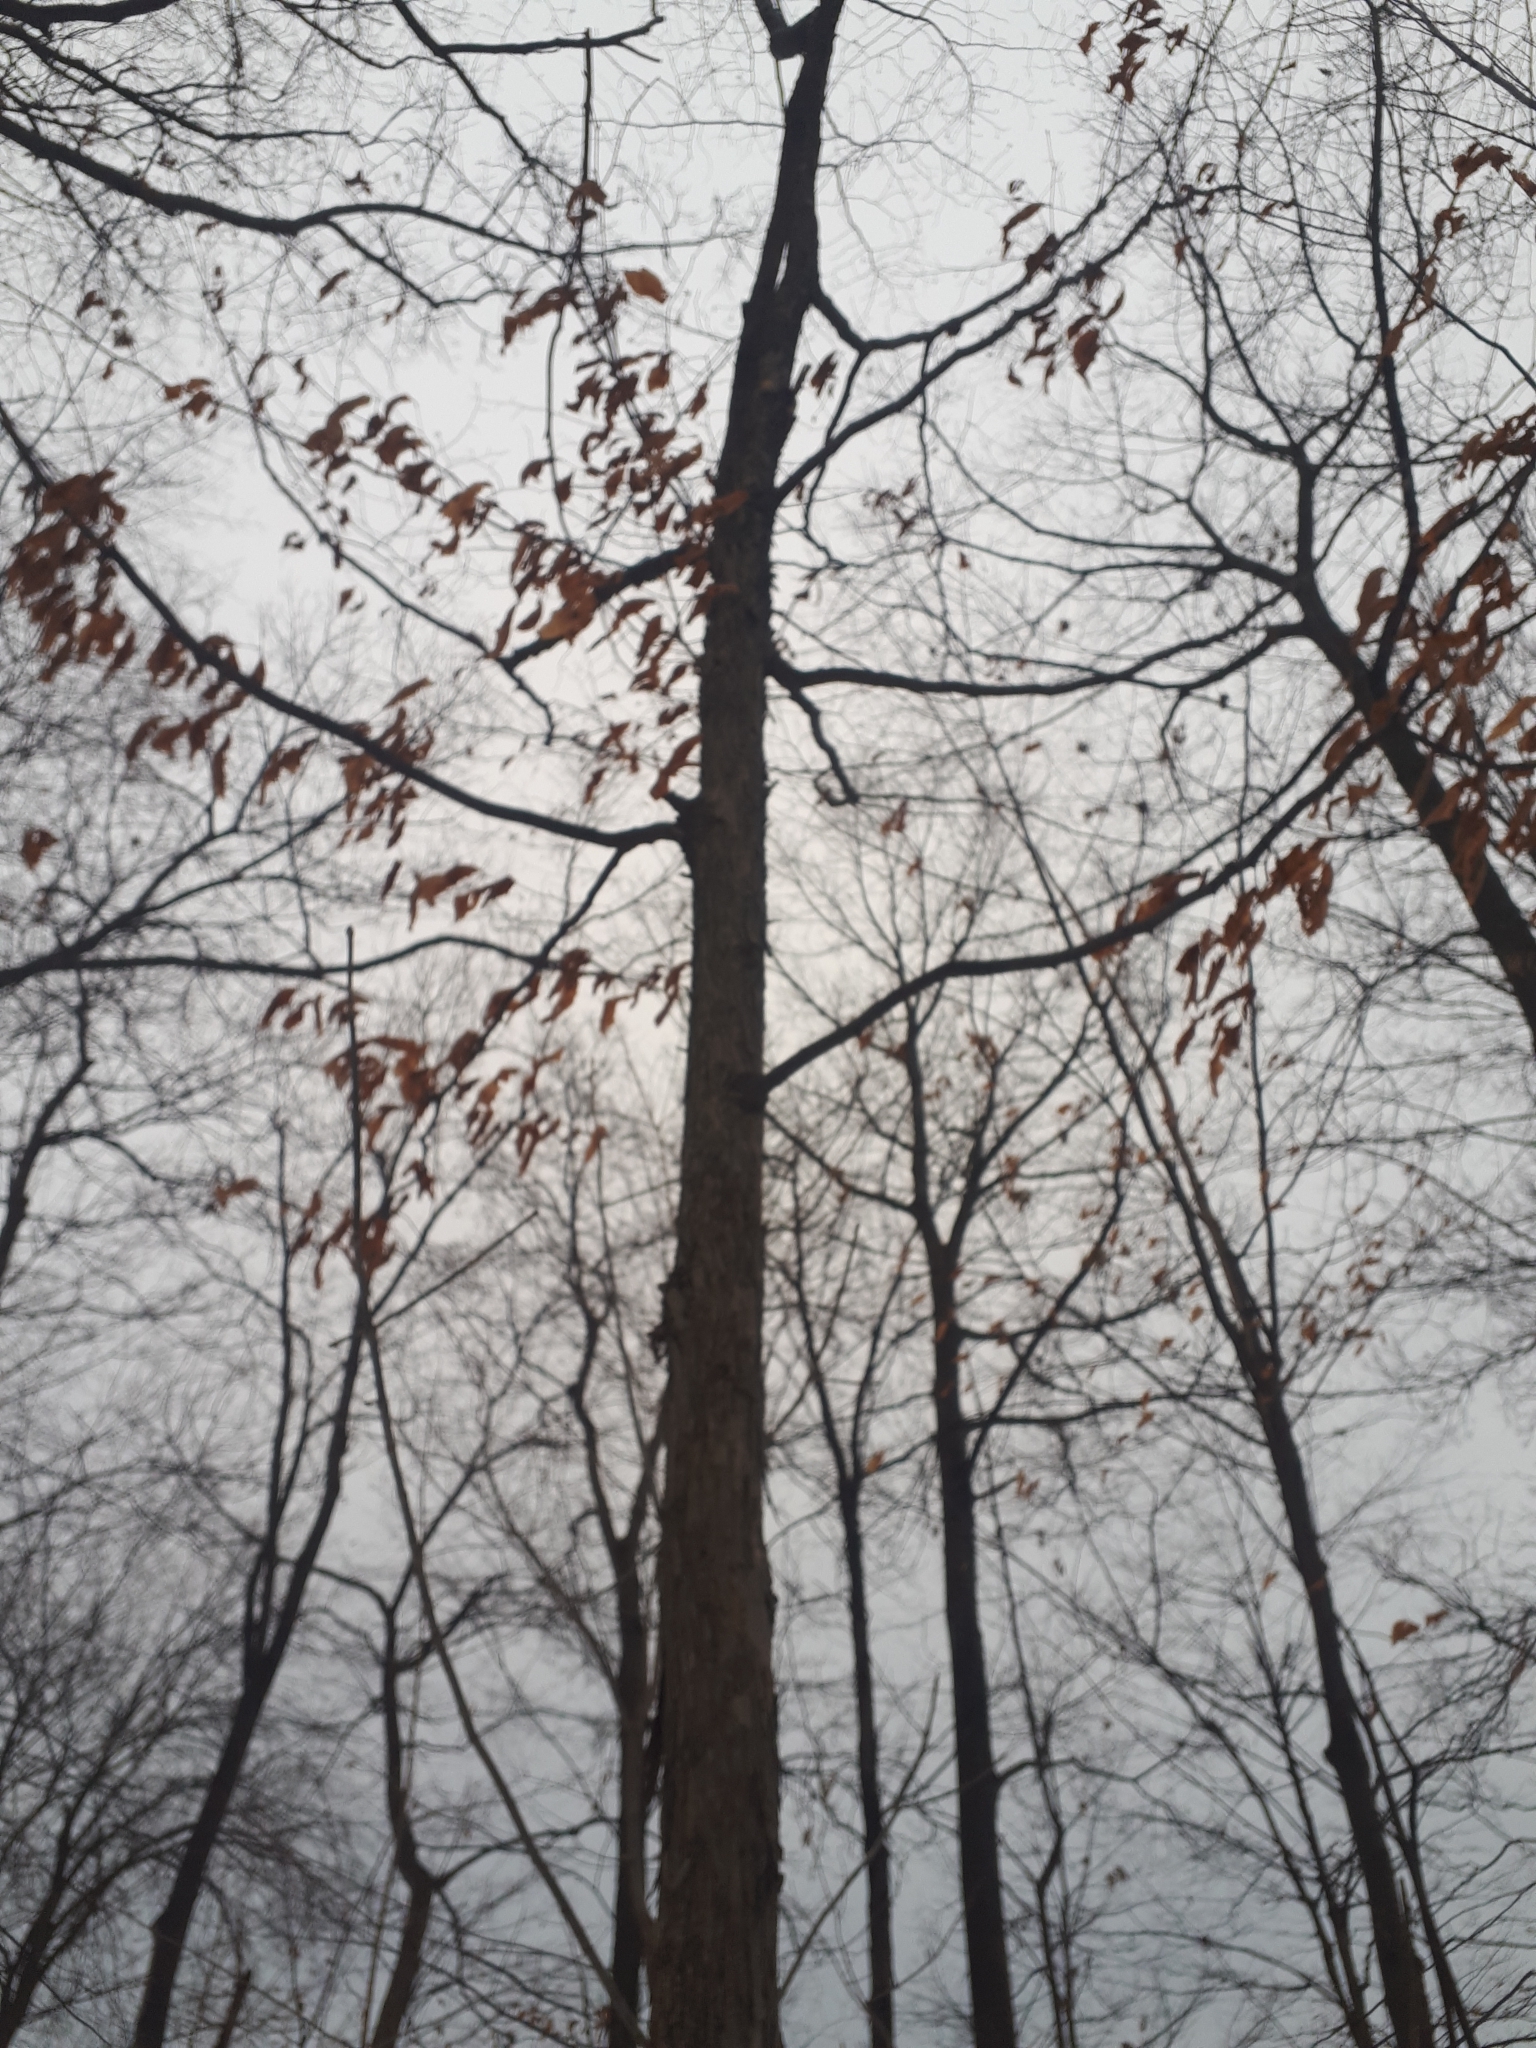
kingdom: Plantae
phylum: Tracheophyta
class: Magnoliopsida
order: Fagales
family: Betulaceae
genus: Ostrya
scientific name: Ostrya virginiana
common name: Ironwood
